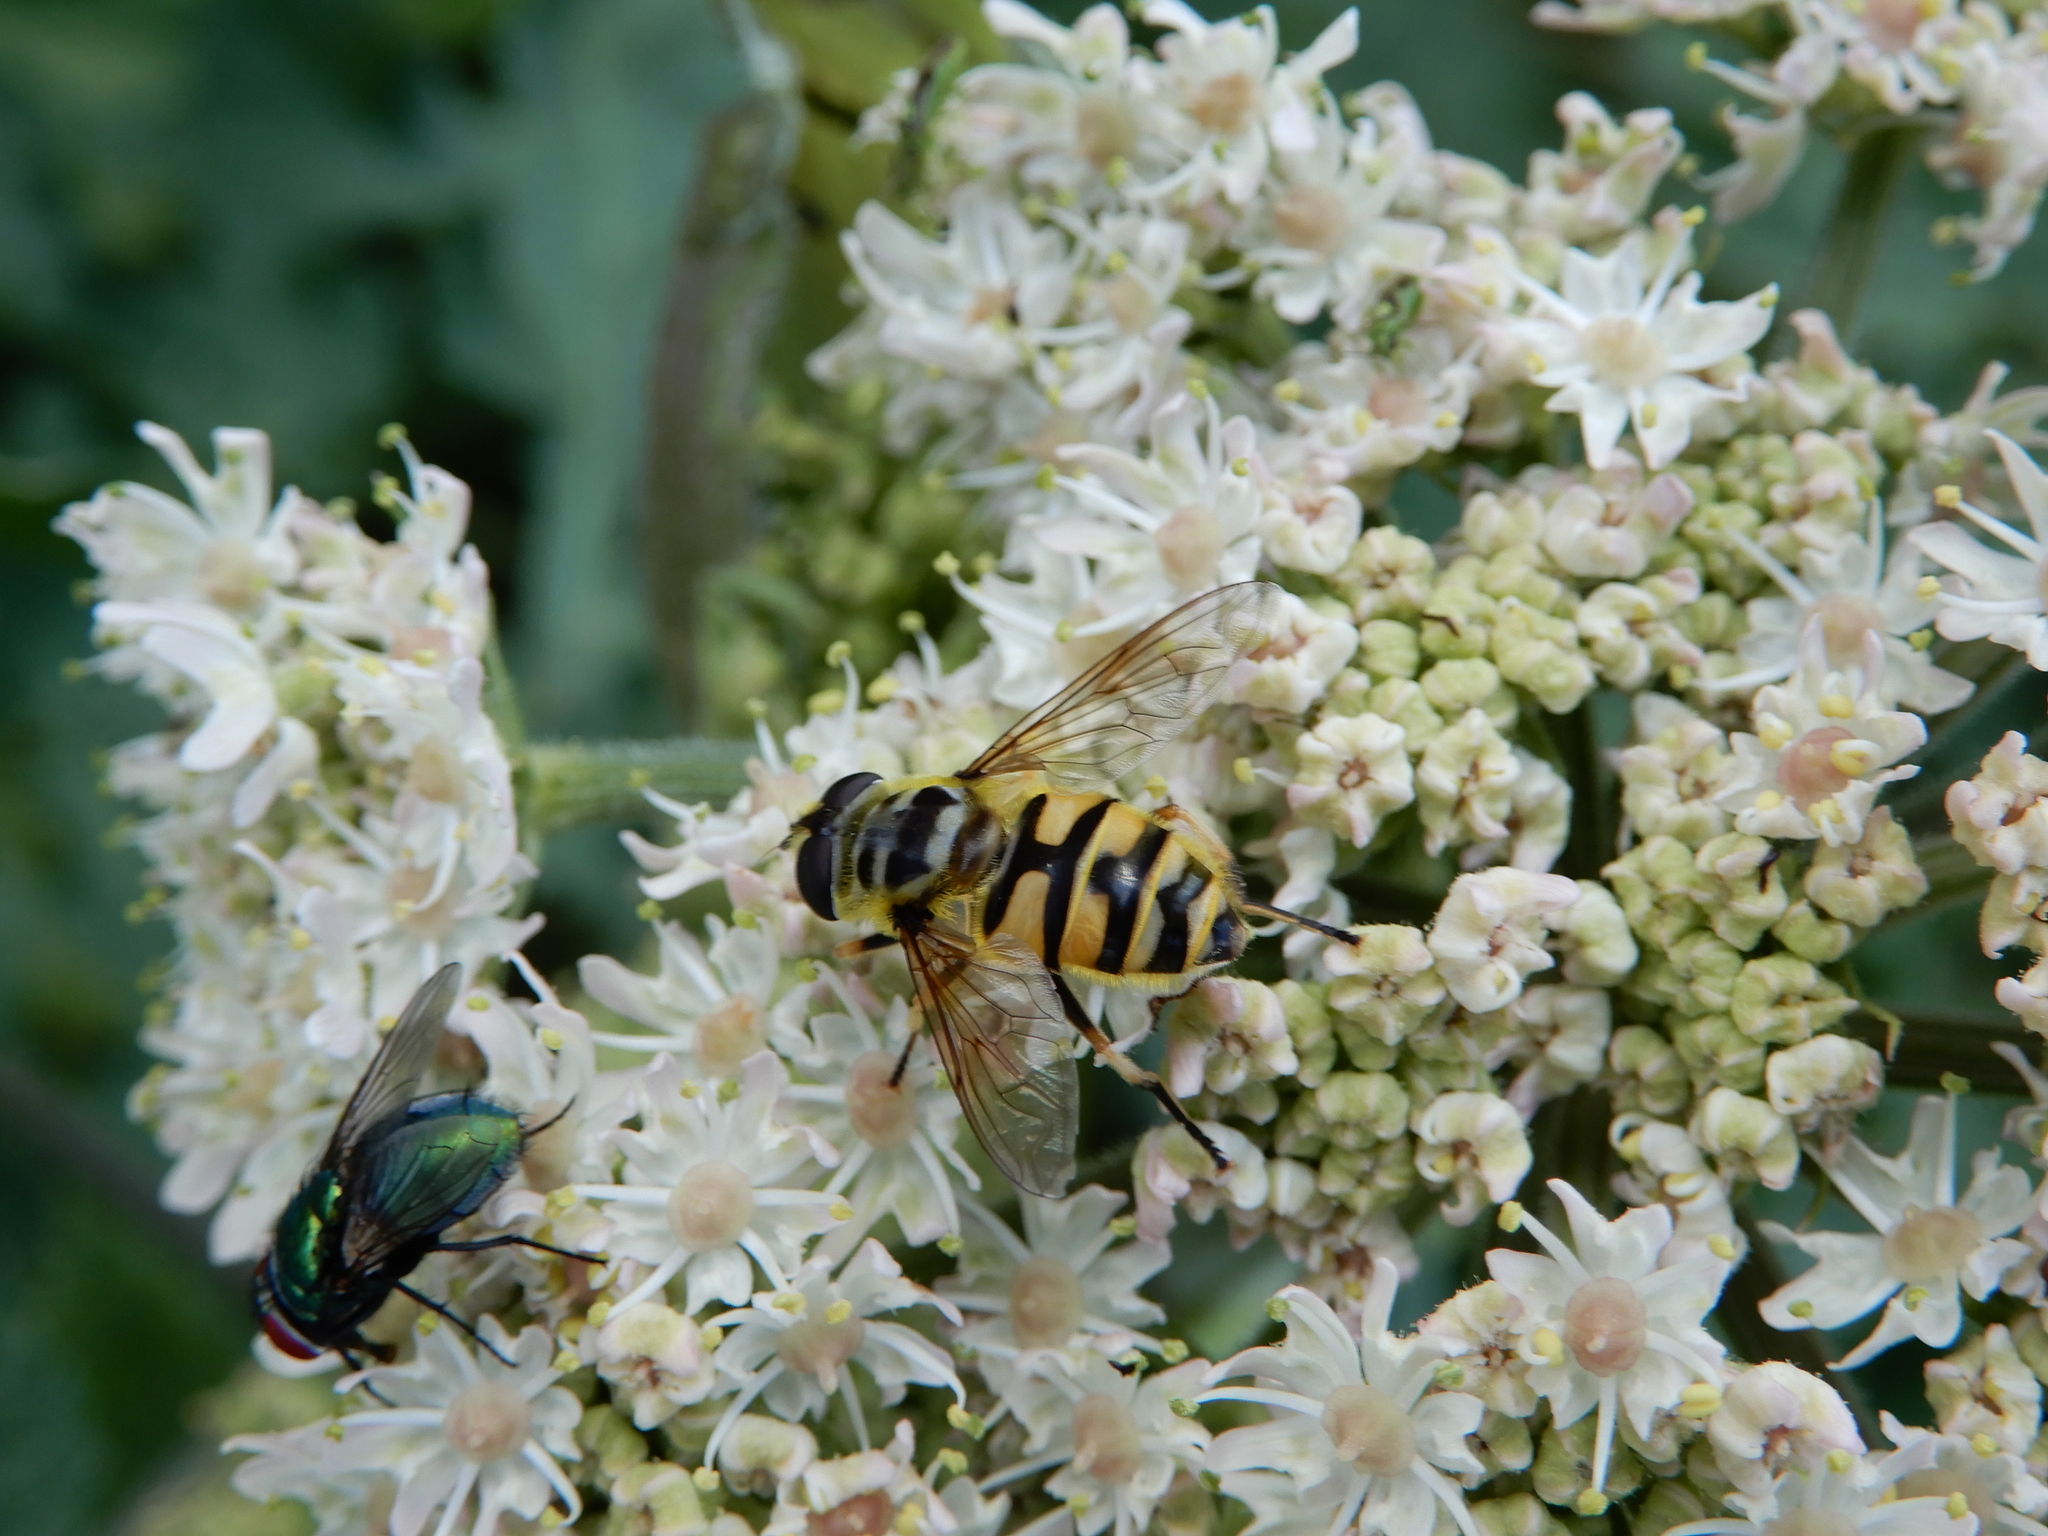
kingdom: Animalia
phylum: Arthropoda
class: Insecta
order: Diptera
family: Syrphidae
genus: Myathropa
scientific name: Myathropa florea
